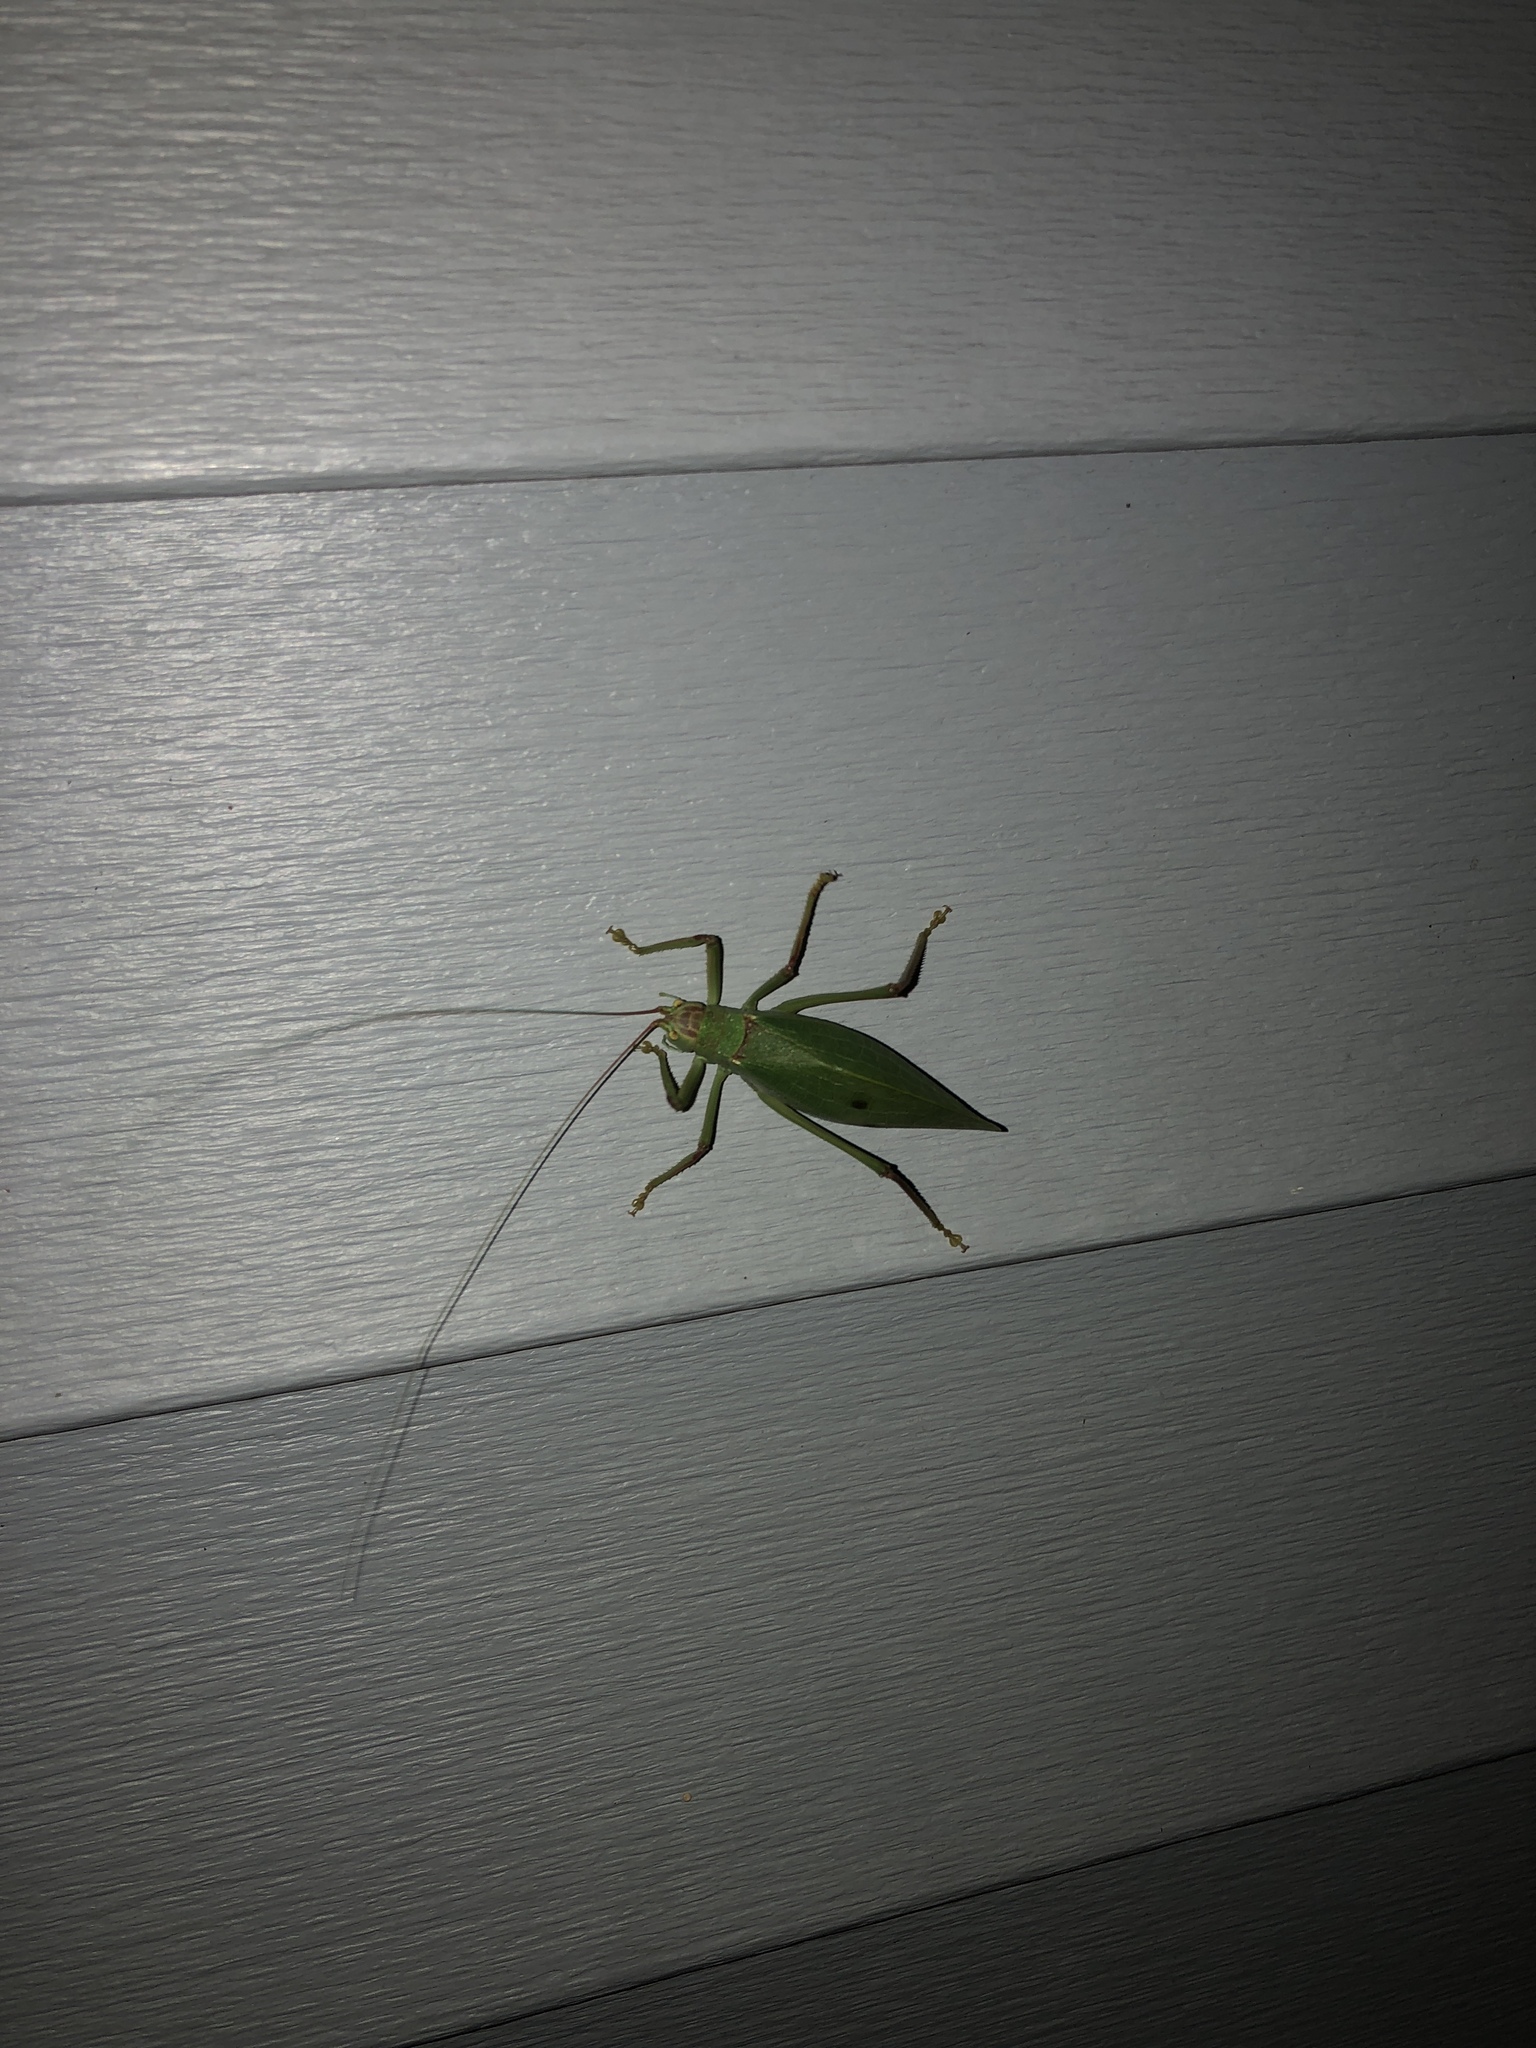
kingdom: Animalia
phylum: Arthropoda
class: Insecta
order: Orthoptera
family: Tettigoniidae
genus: Pterophylla
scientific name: Pterophylla camellifolia
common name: Common true katydid
